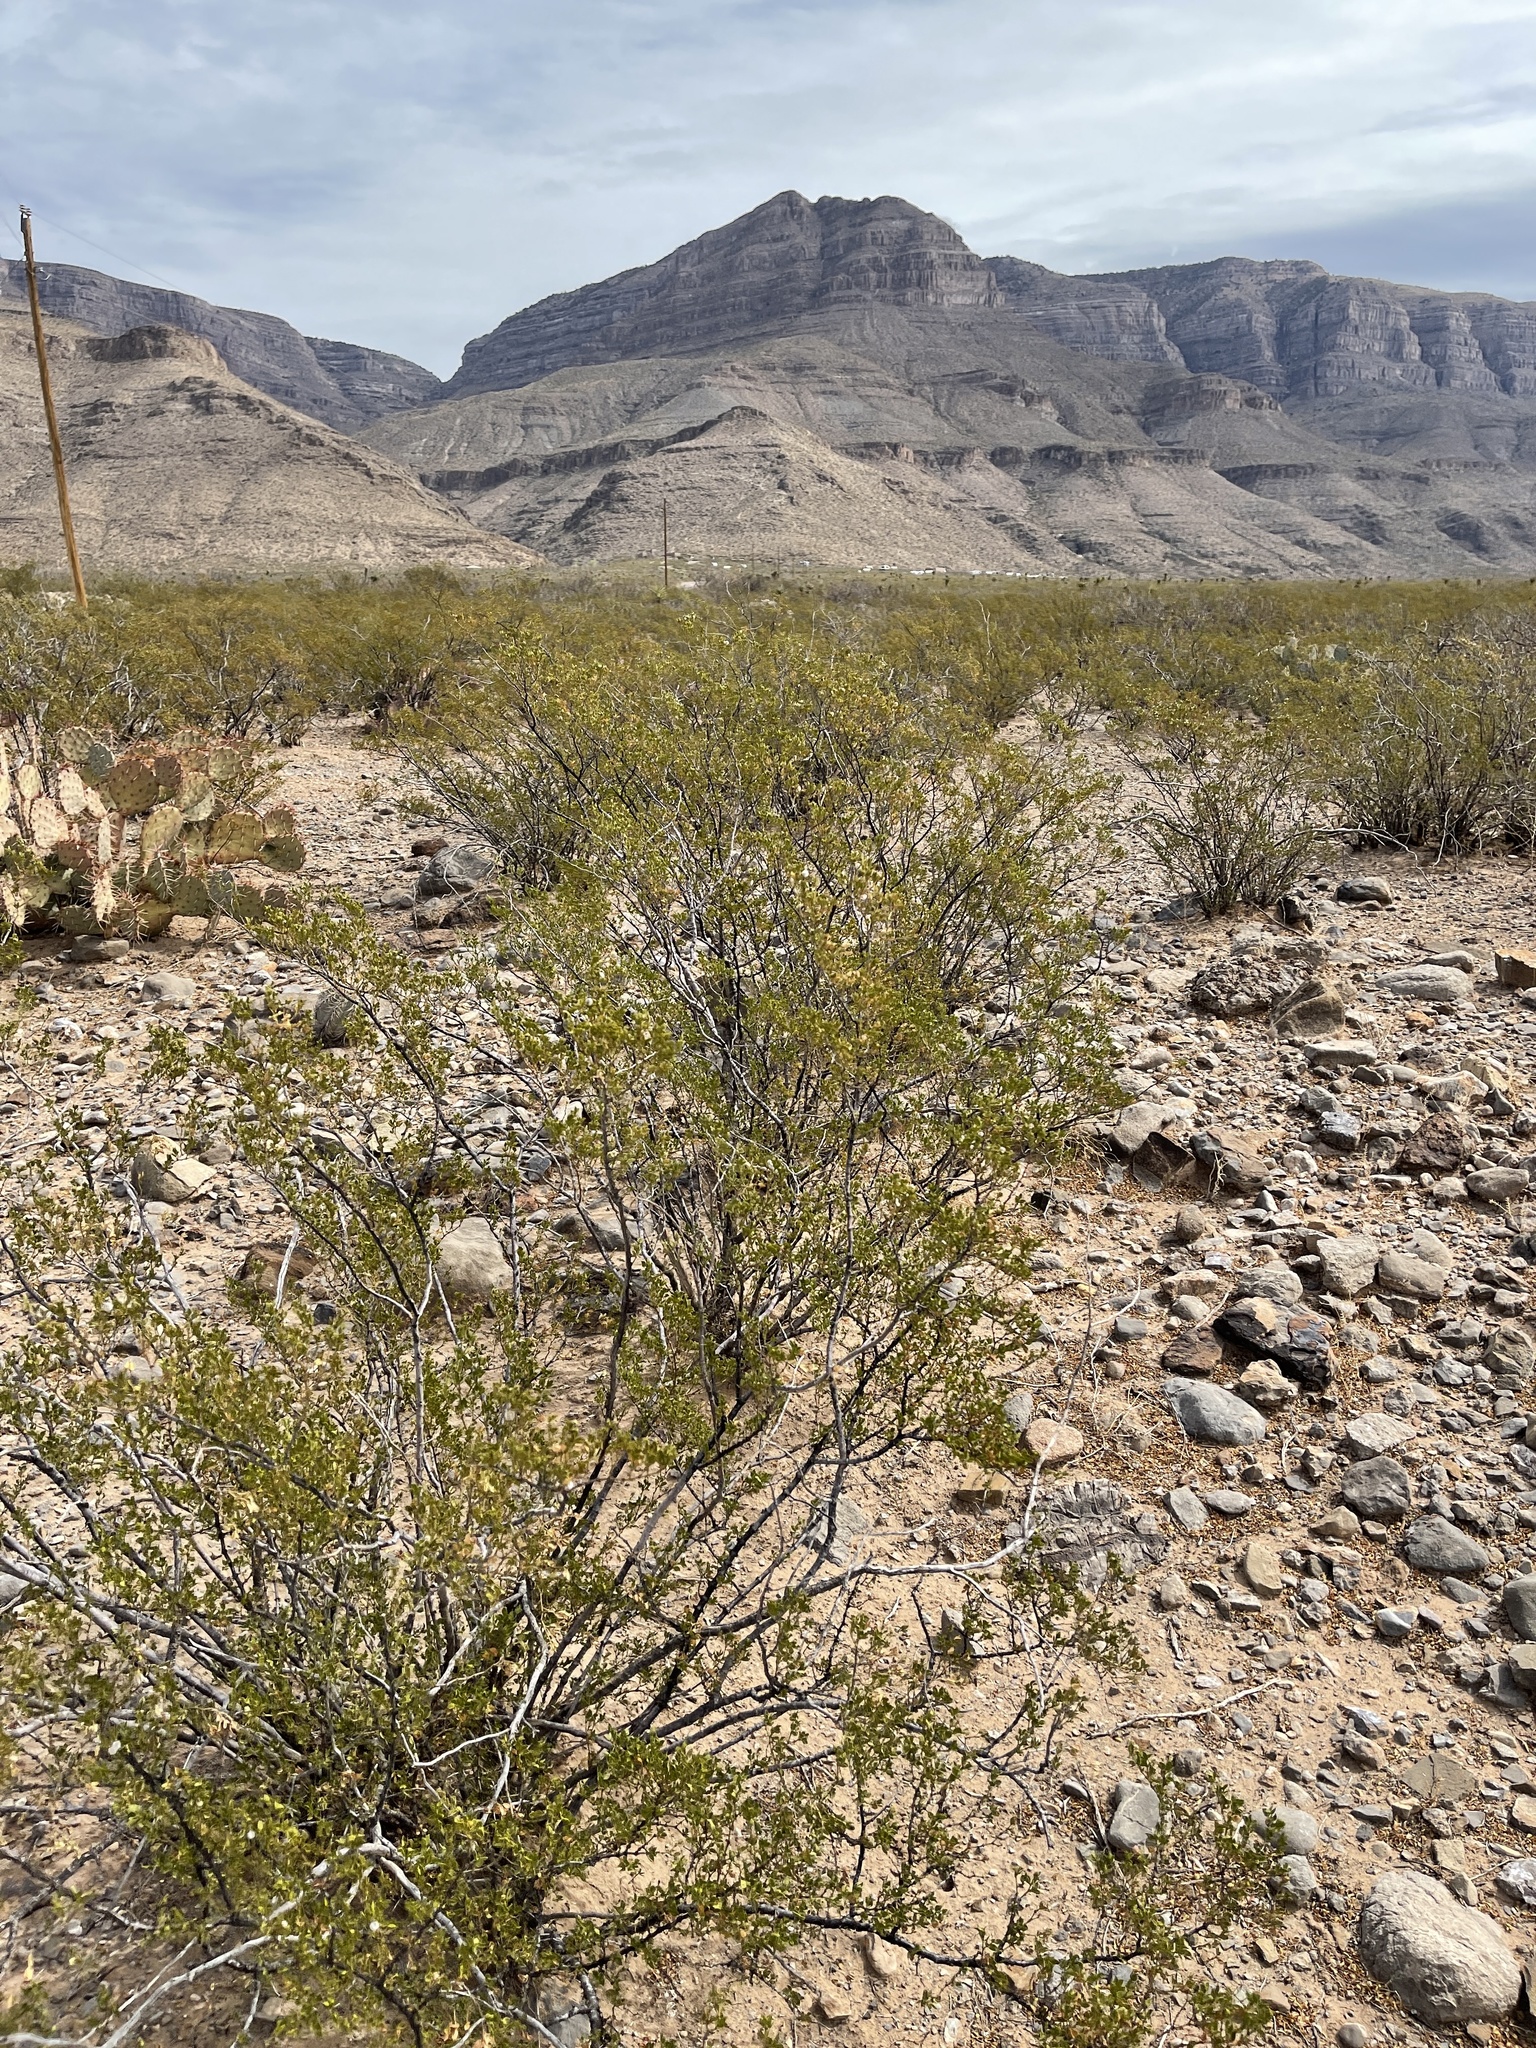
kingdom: Plantae
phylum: Tracheophyta
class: Magnoliopsida
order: Zygophyllales
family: Zygophyllaceae
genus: Larrea
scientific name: Larrea tridentata
